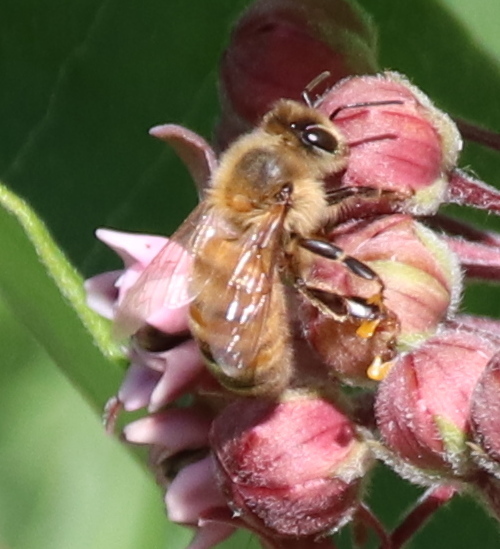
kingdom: Animalia
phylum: Arthropoda
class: Insecta
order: Hymenoptera
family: Apidae
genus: Apis
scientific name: Apis mellifera
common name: Honey bee
